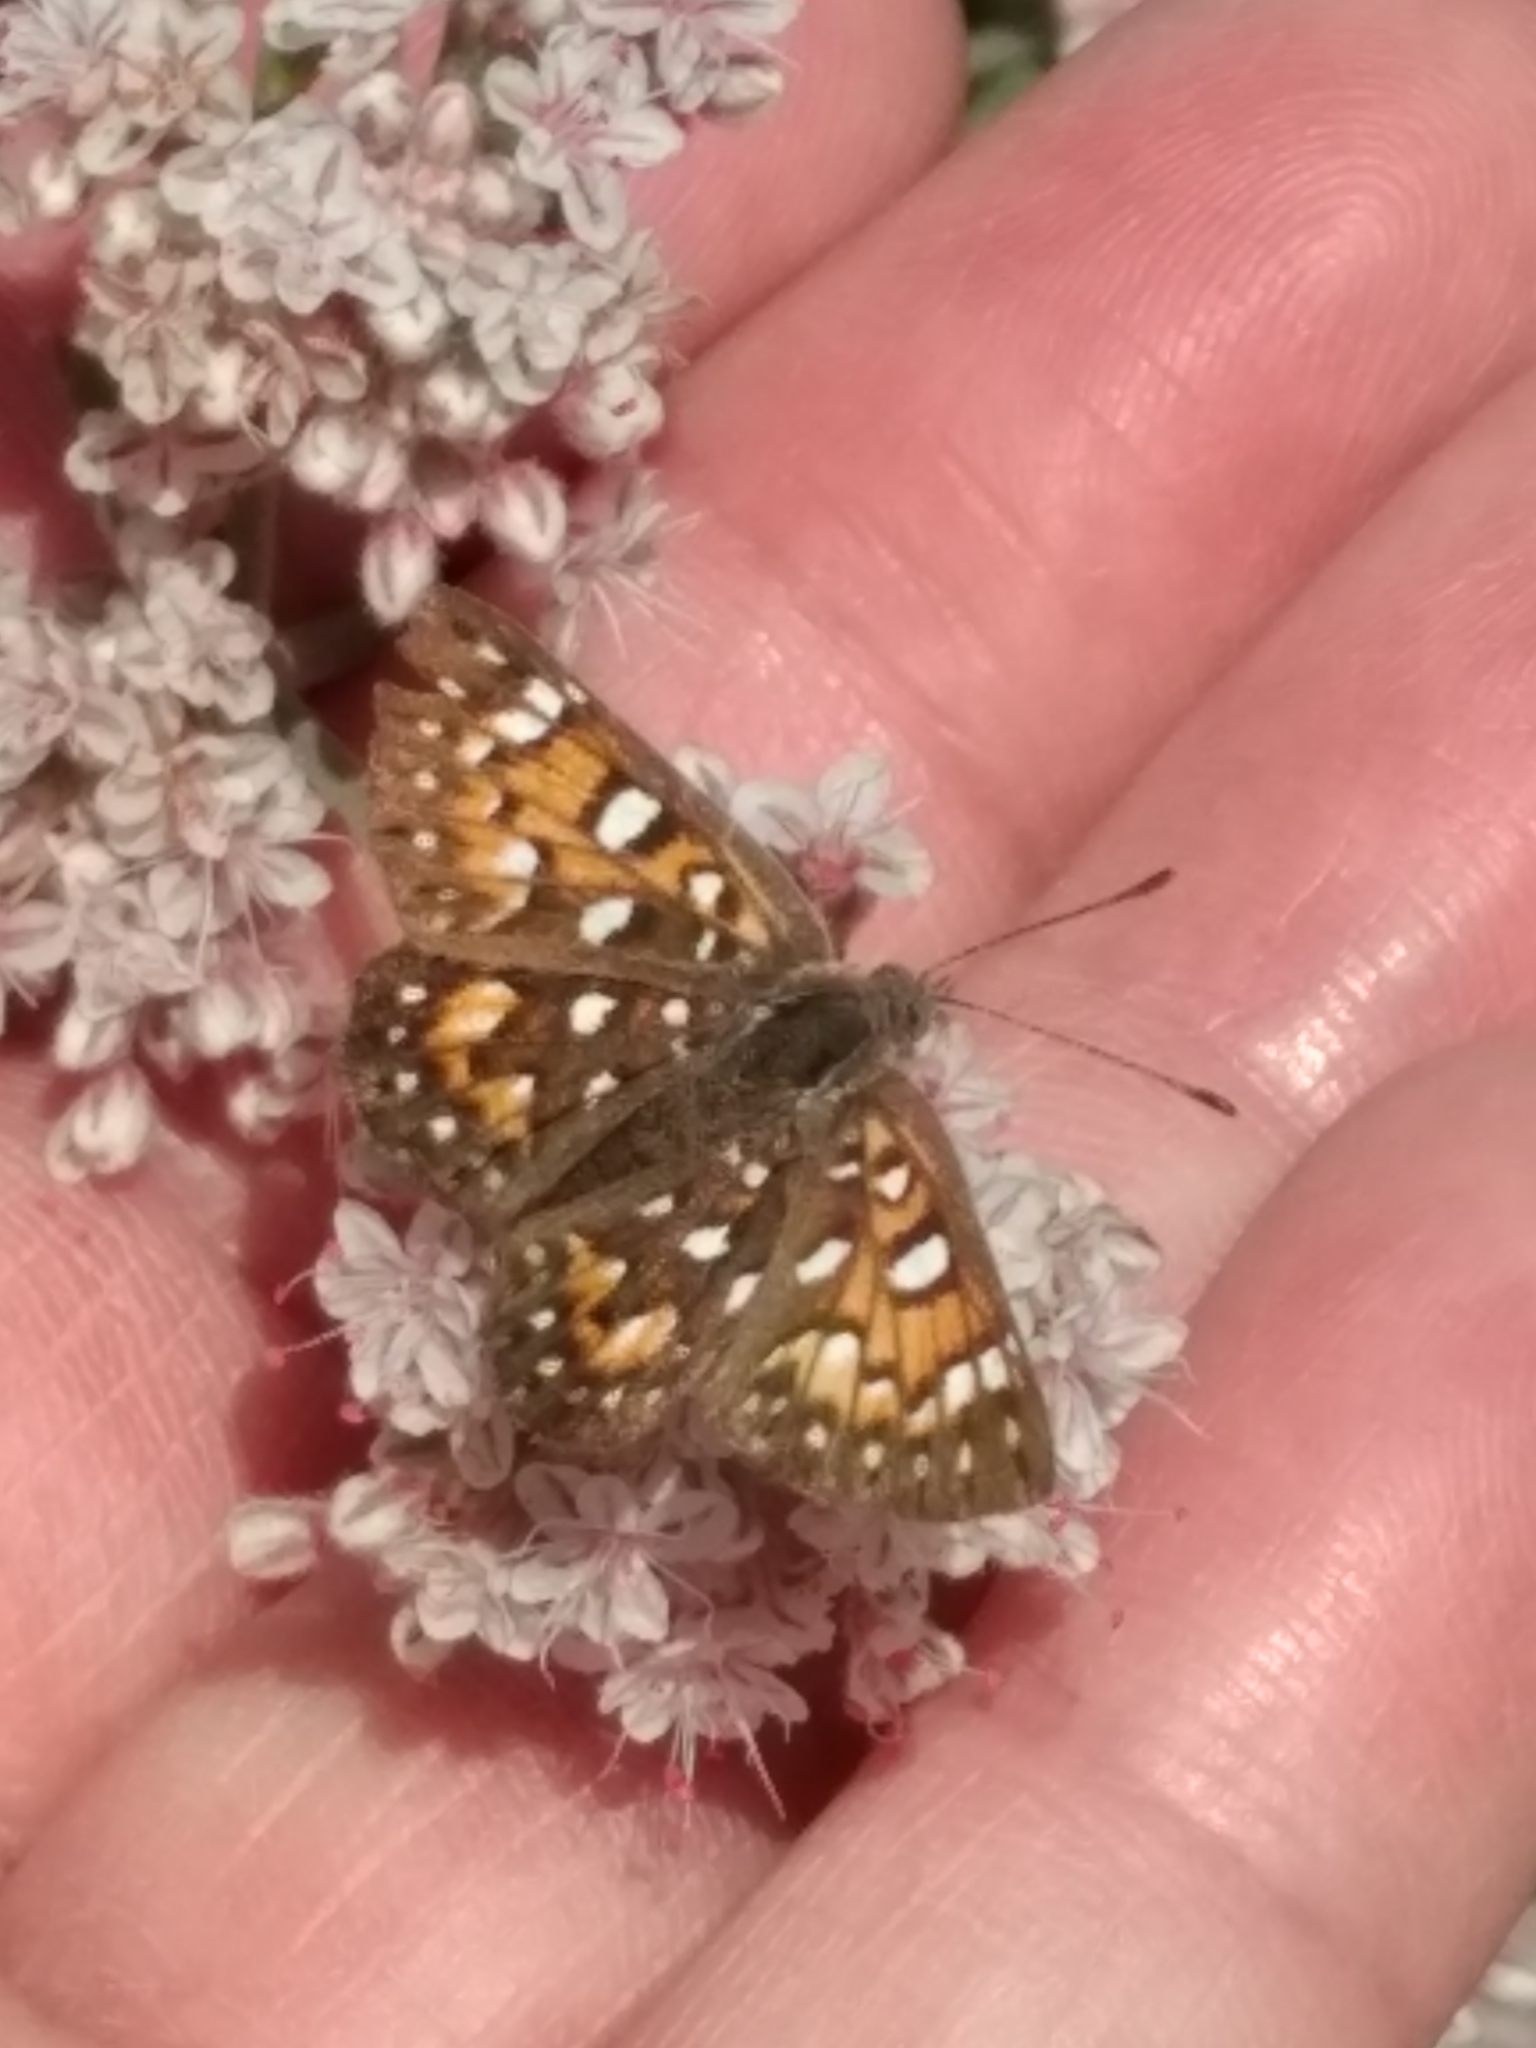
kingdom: Animalia
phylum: Arthropoda
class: Insecta
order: Lepidoptera
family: Riodinidae
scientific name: Riodinidae
